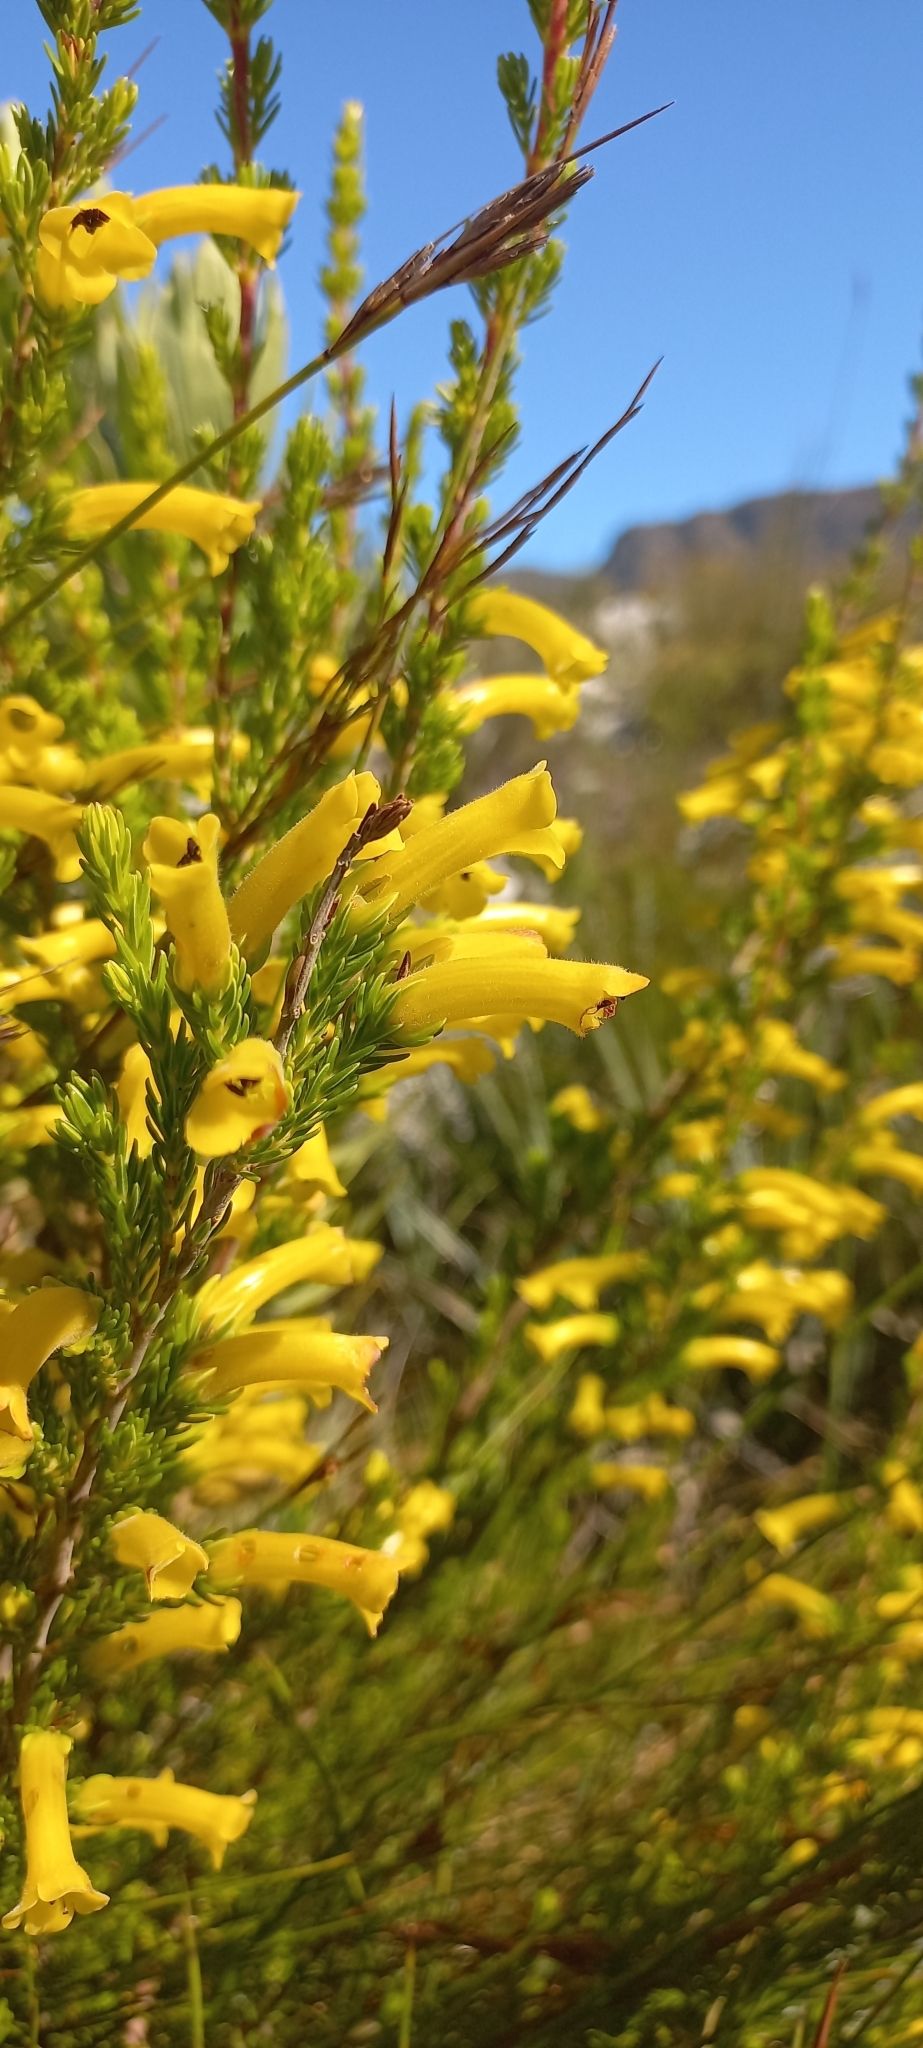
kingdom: Plantae
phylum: Tracheophyta
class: Magnoliopsida
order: Ericales
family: Ericaceae
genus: Erica
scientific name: Erica macowanii
